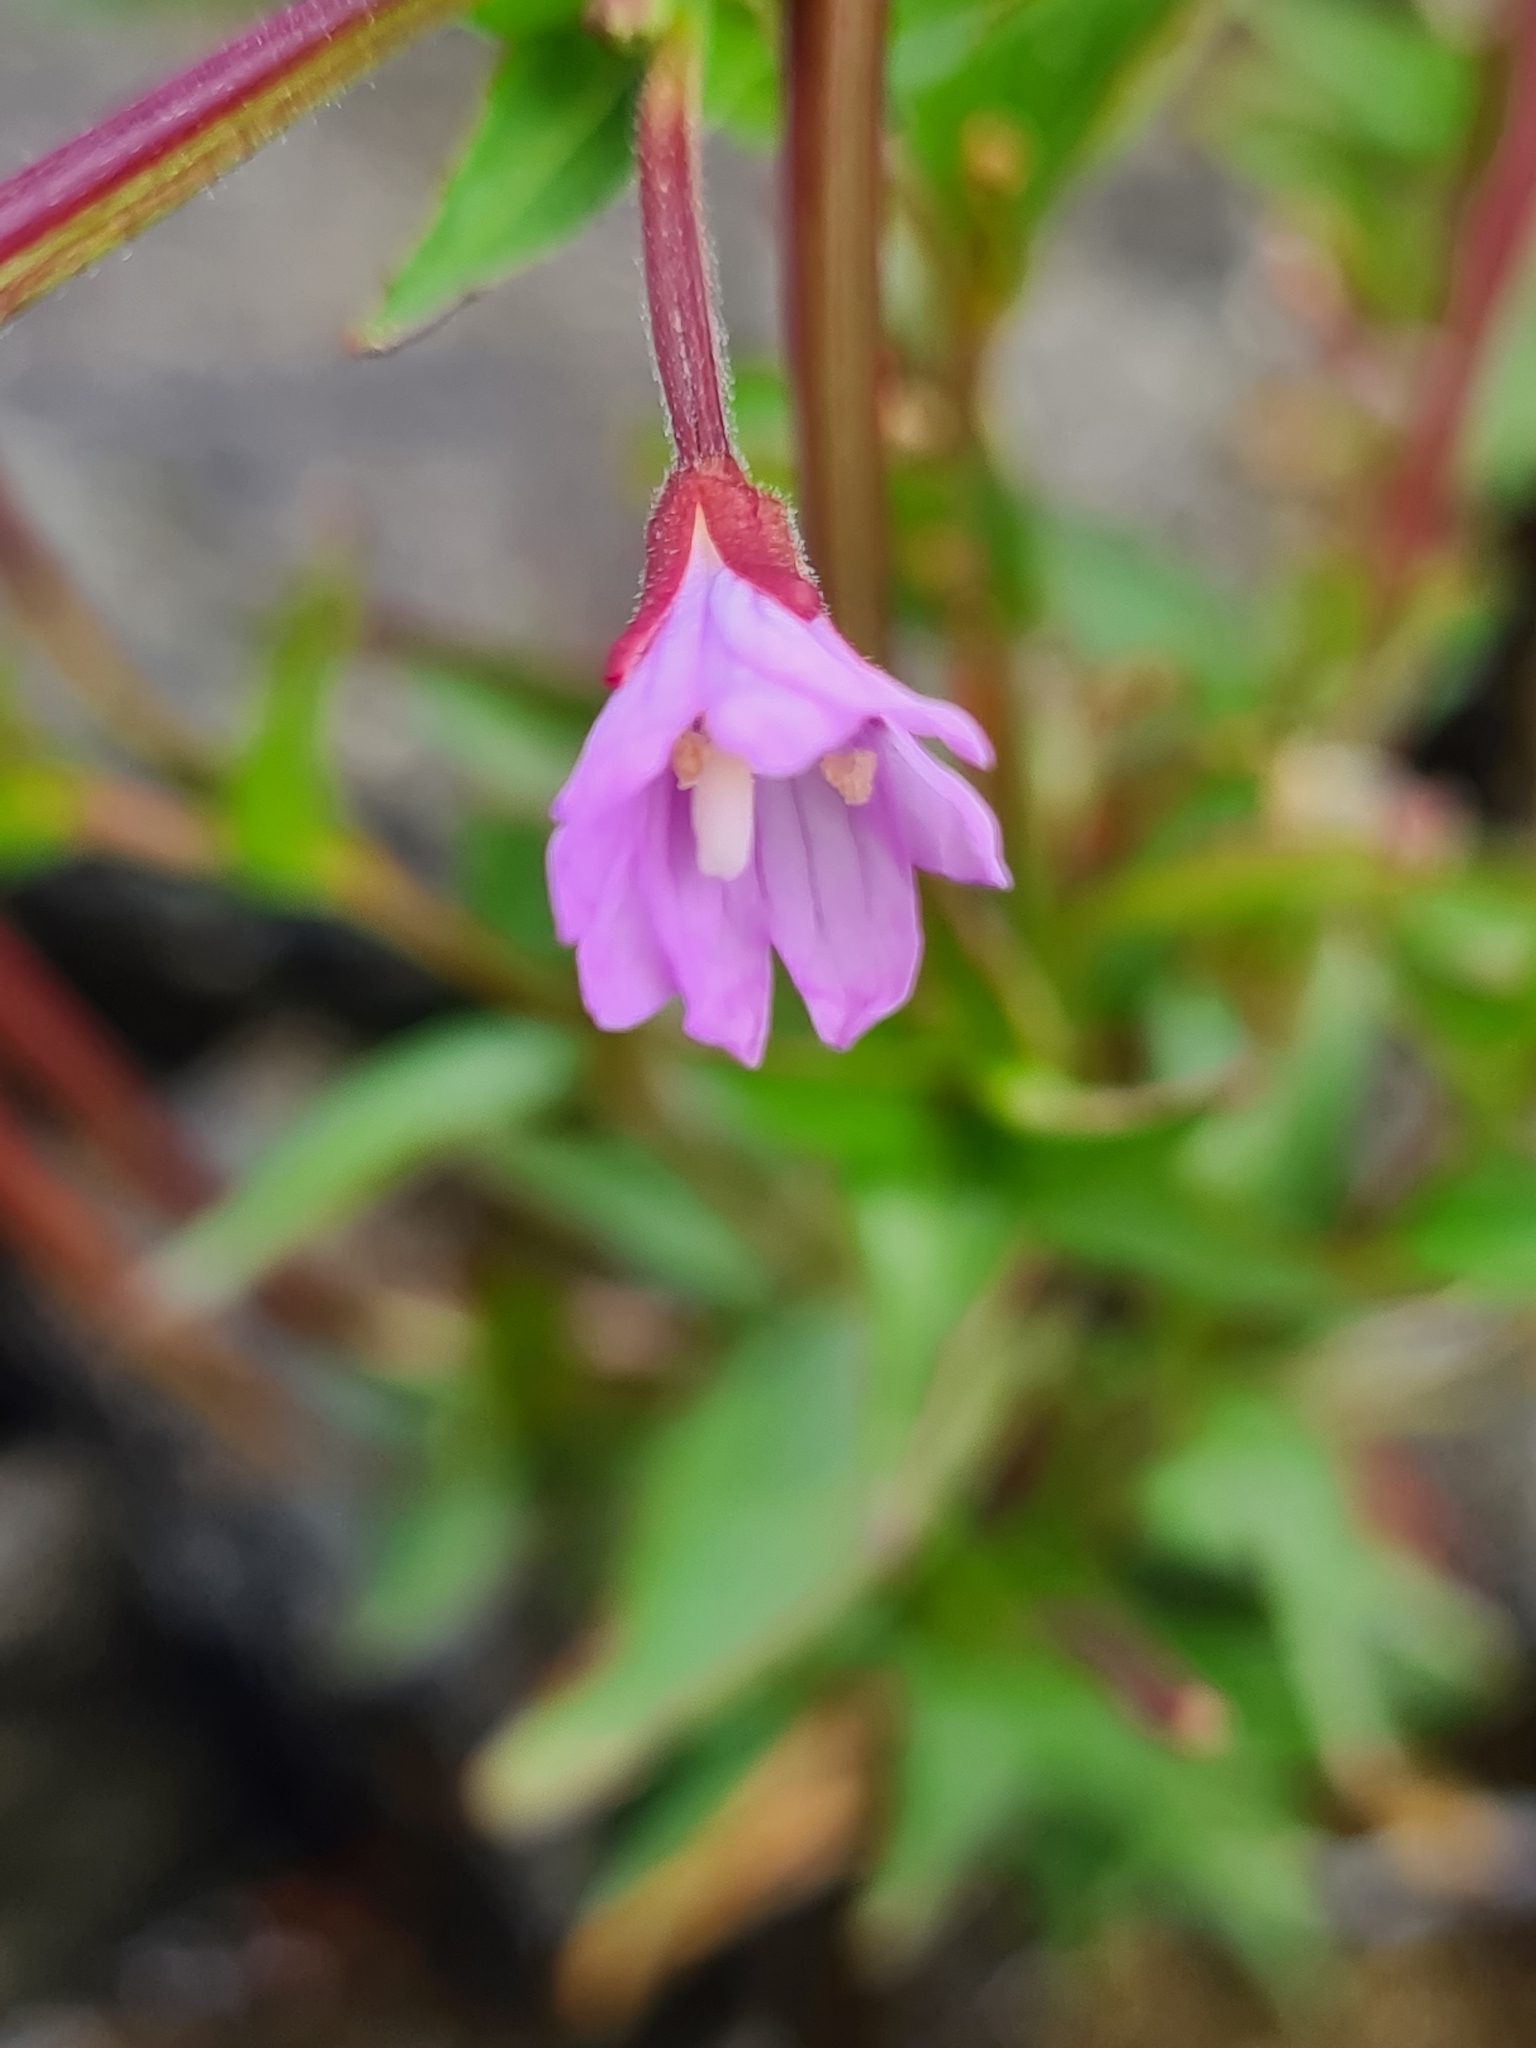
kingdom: Plantae
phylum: Tracheophyta
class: Magnoliopsida
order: Myrtales
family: Onagraceae
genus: Epilobium
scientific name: Epilobium alsinifolium
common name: Chickweed willowherb
